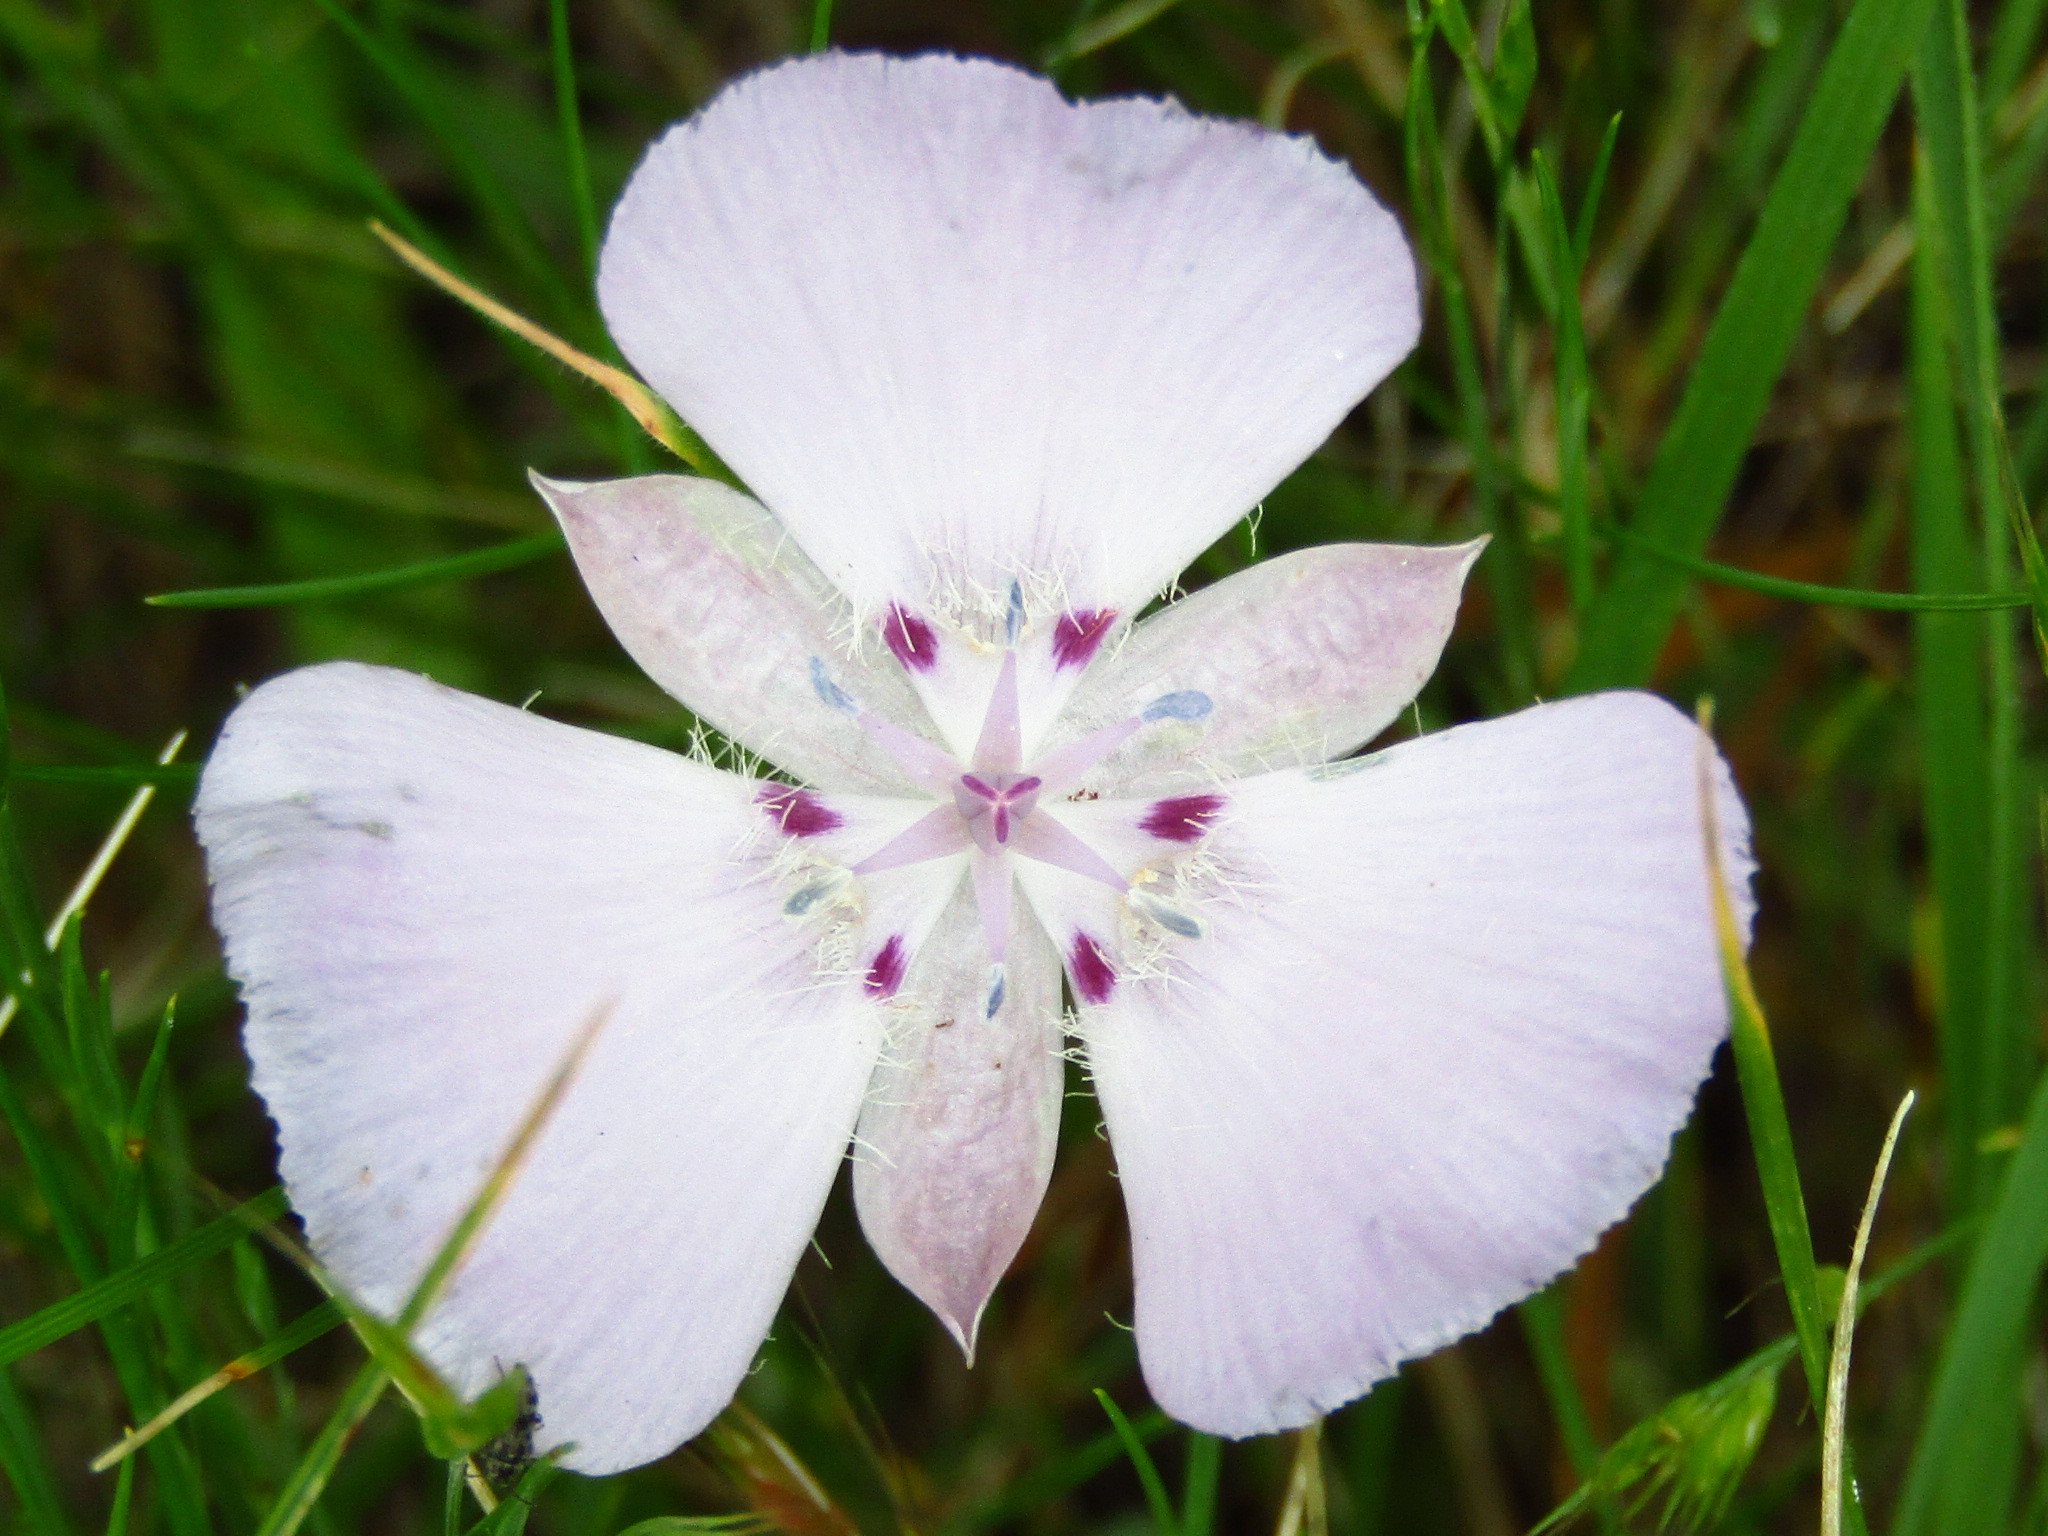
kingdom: Plantae
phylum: Tracheophyta
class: Liliopsida
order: Liliales
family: Liliaceae
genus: Calochortus
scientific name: Calochortus uniflorus
